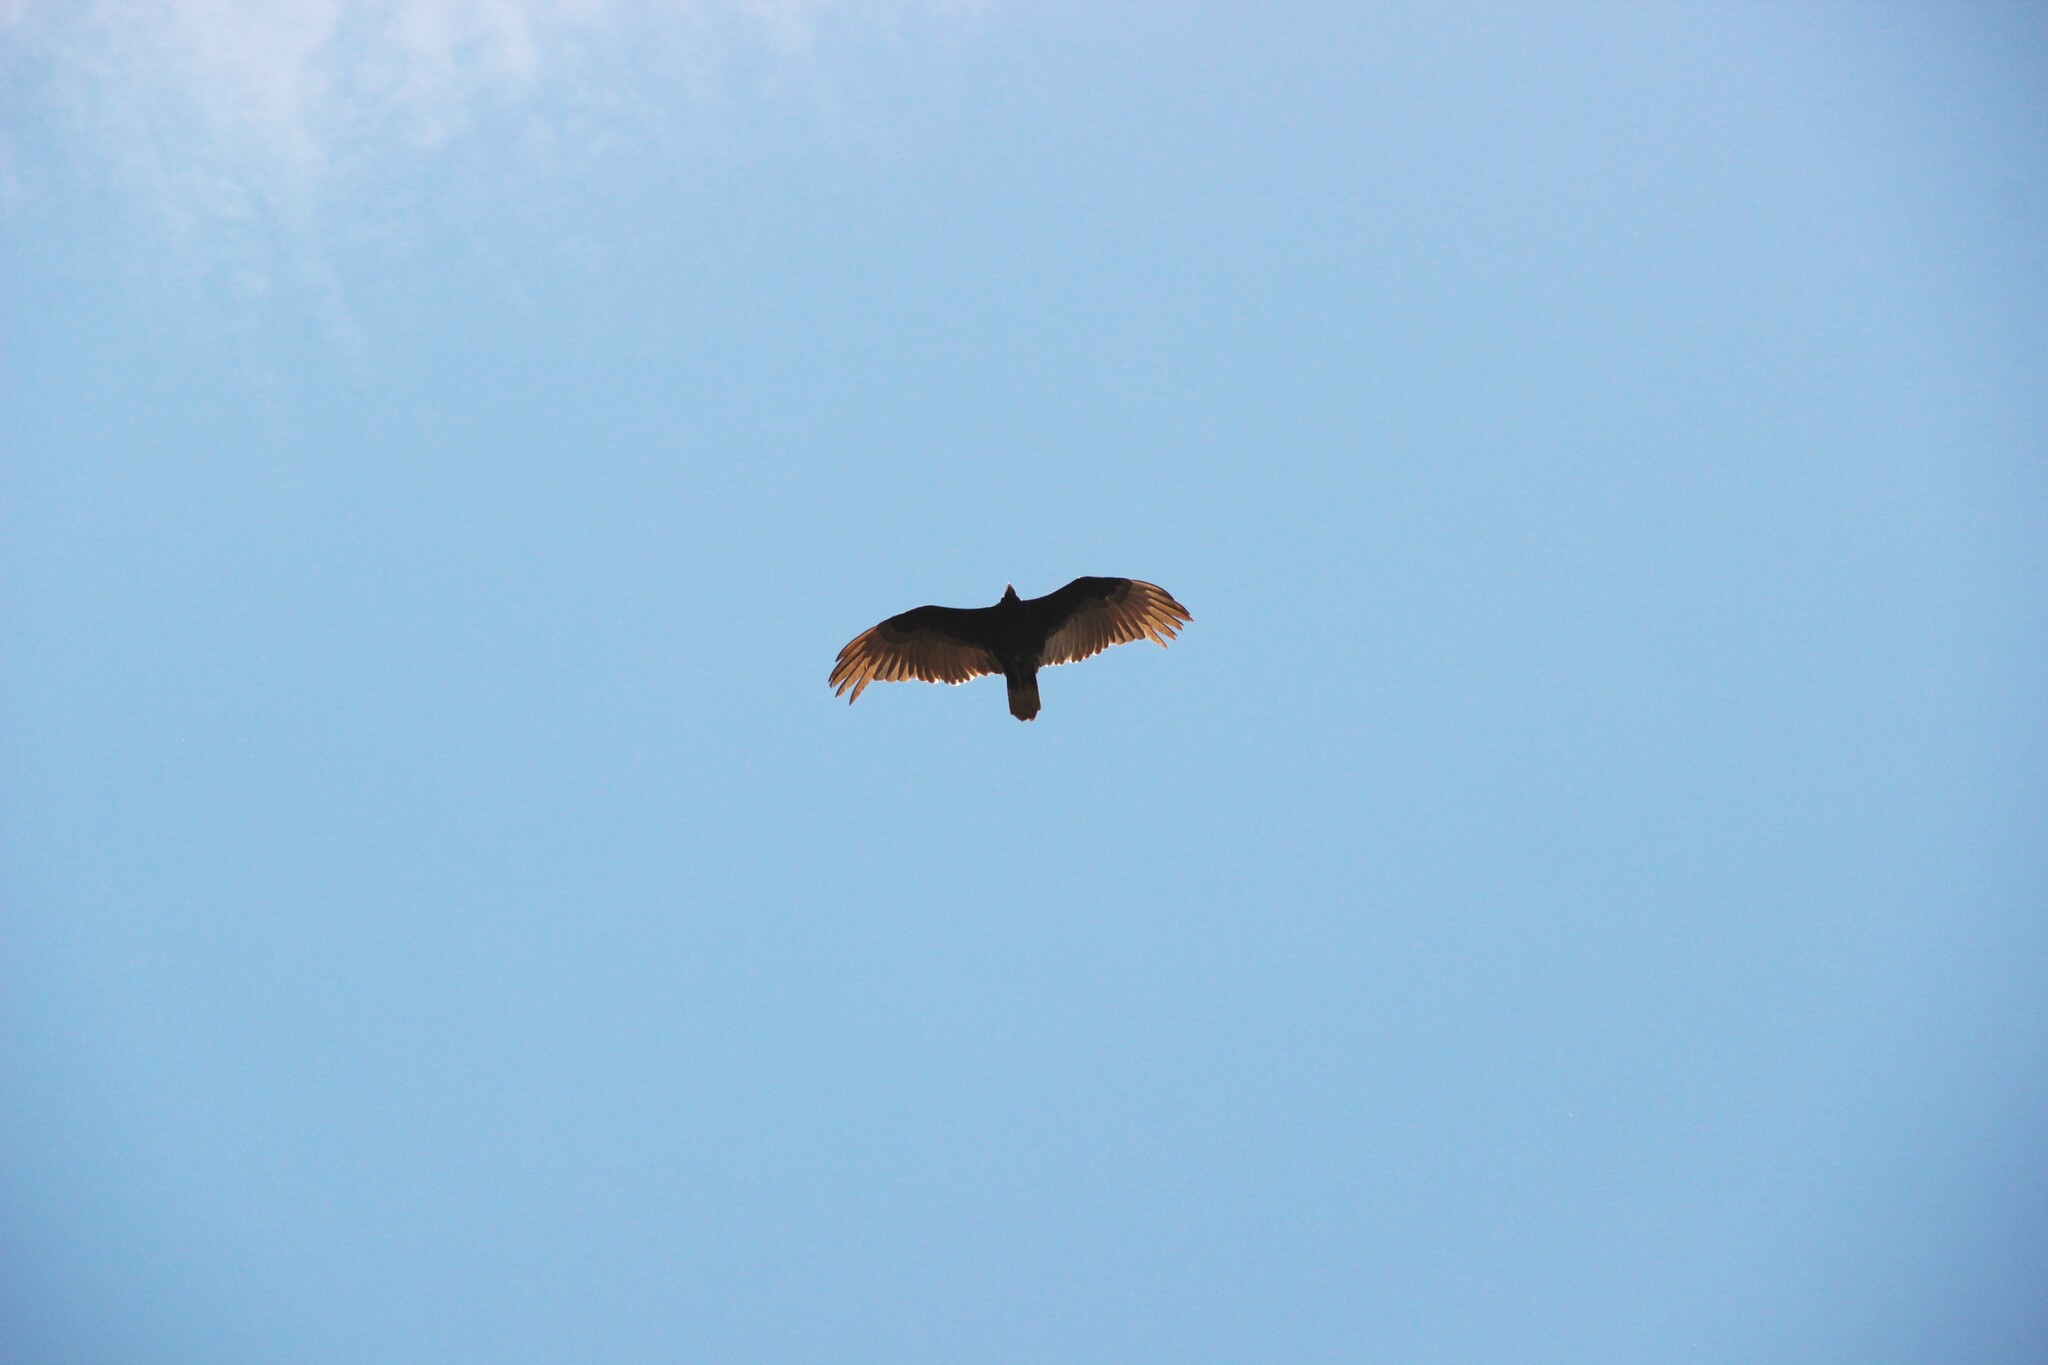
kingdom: Animalia
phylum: Chordata
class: Aves
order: Accipitriformes
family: Cathartidae
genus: Cathartes
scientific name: Cathartes aura
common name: Turkey vulture
